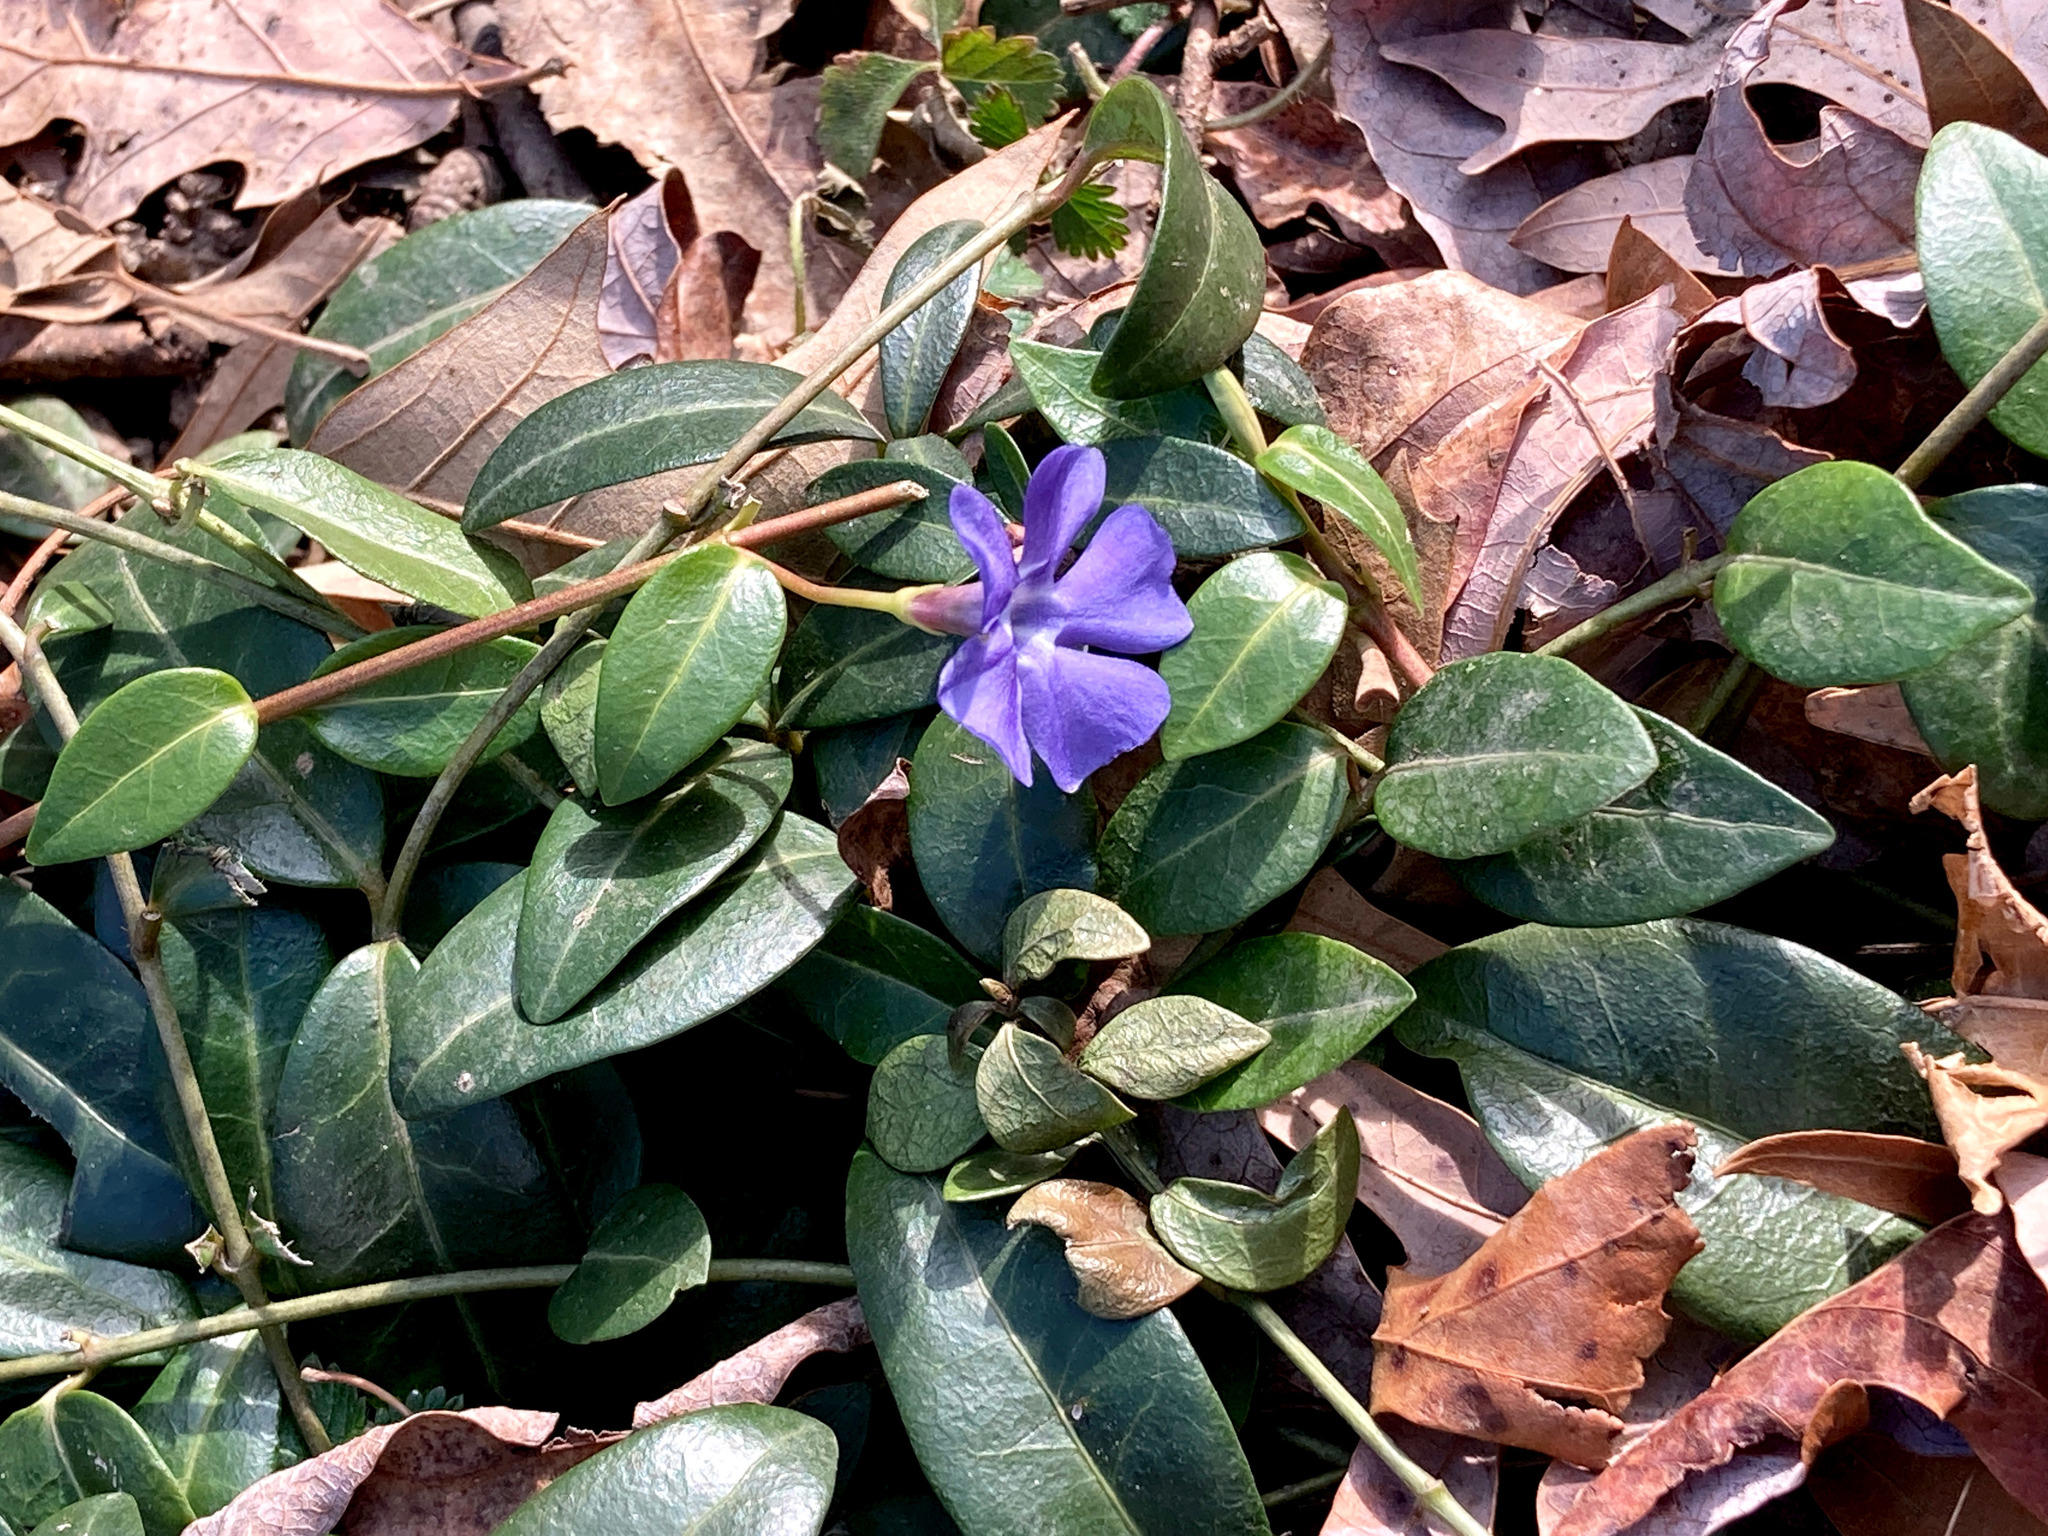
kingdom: Plantae
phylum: Tracheophyta
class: Magnoliopsida
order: Gentianales
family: Apocynaceae
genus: Vinca
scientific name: Vinca minor
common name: Lesser periwinkle
